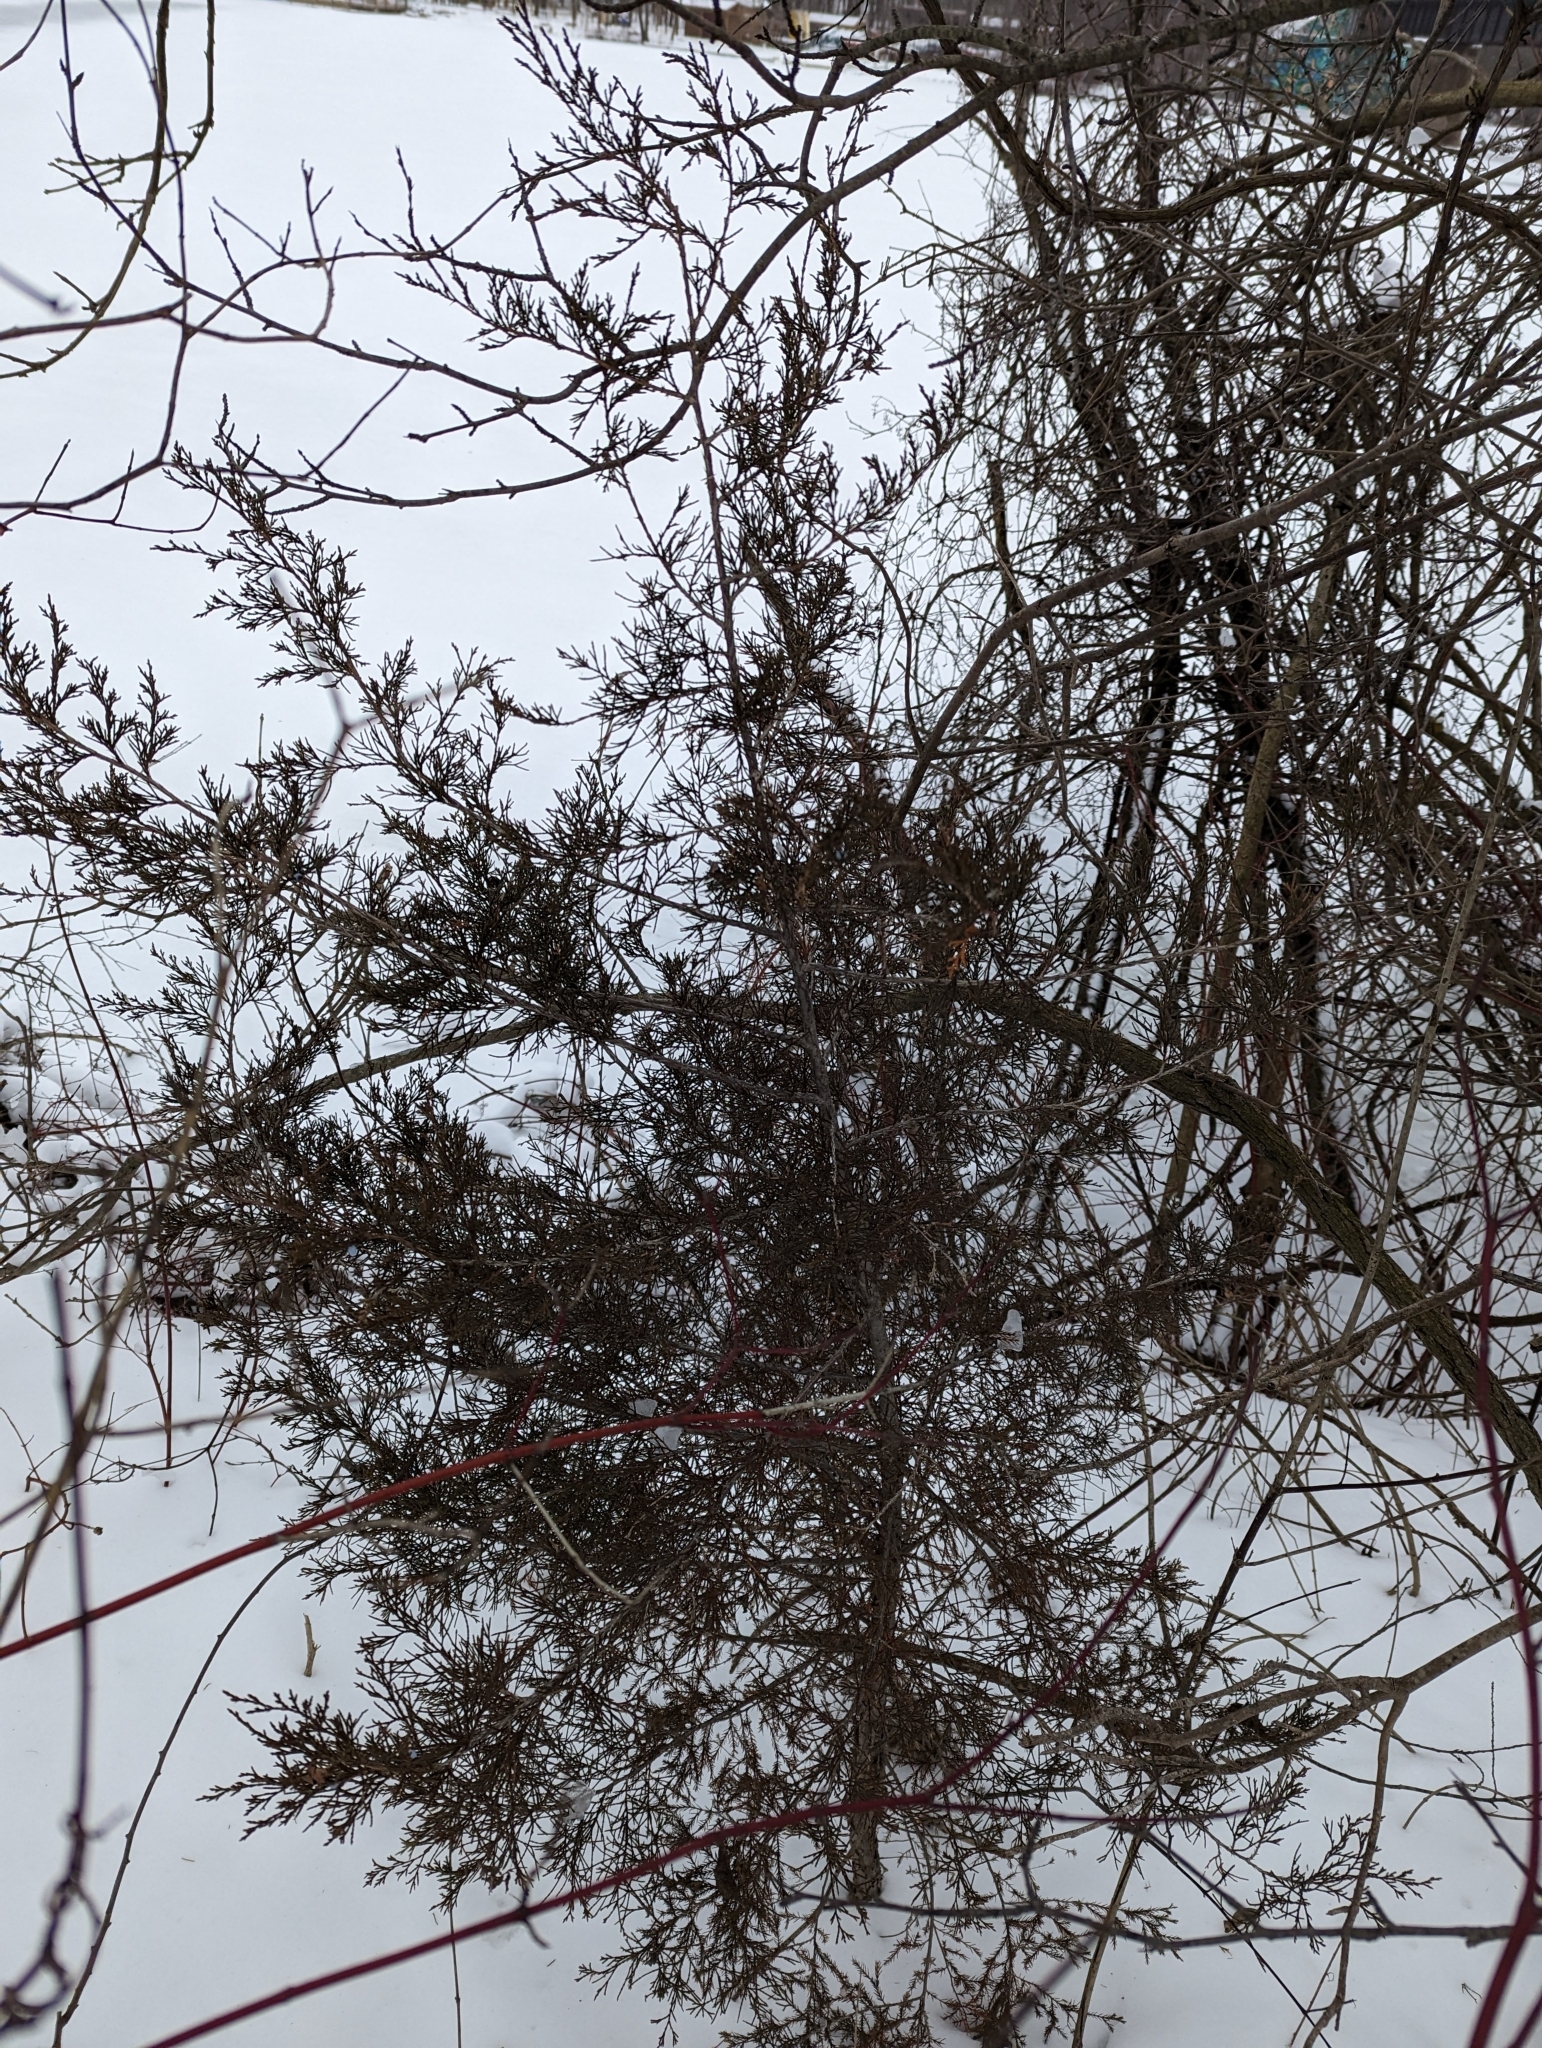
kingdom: Plantae
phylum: Tracheophyta
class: Pinopsida
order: Pinales
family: Cupressaceae
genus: Juniperus
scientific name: Juniperus virginiana
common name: Red juniper
